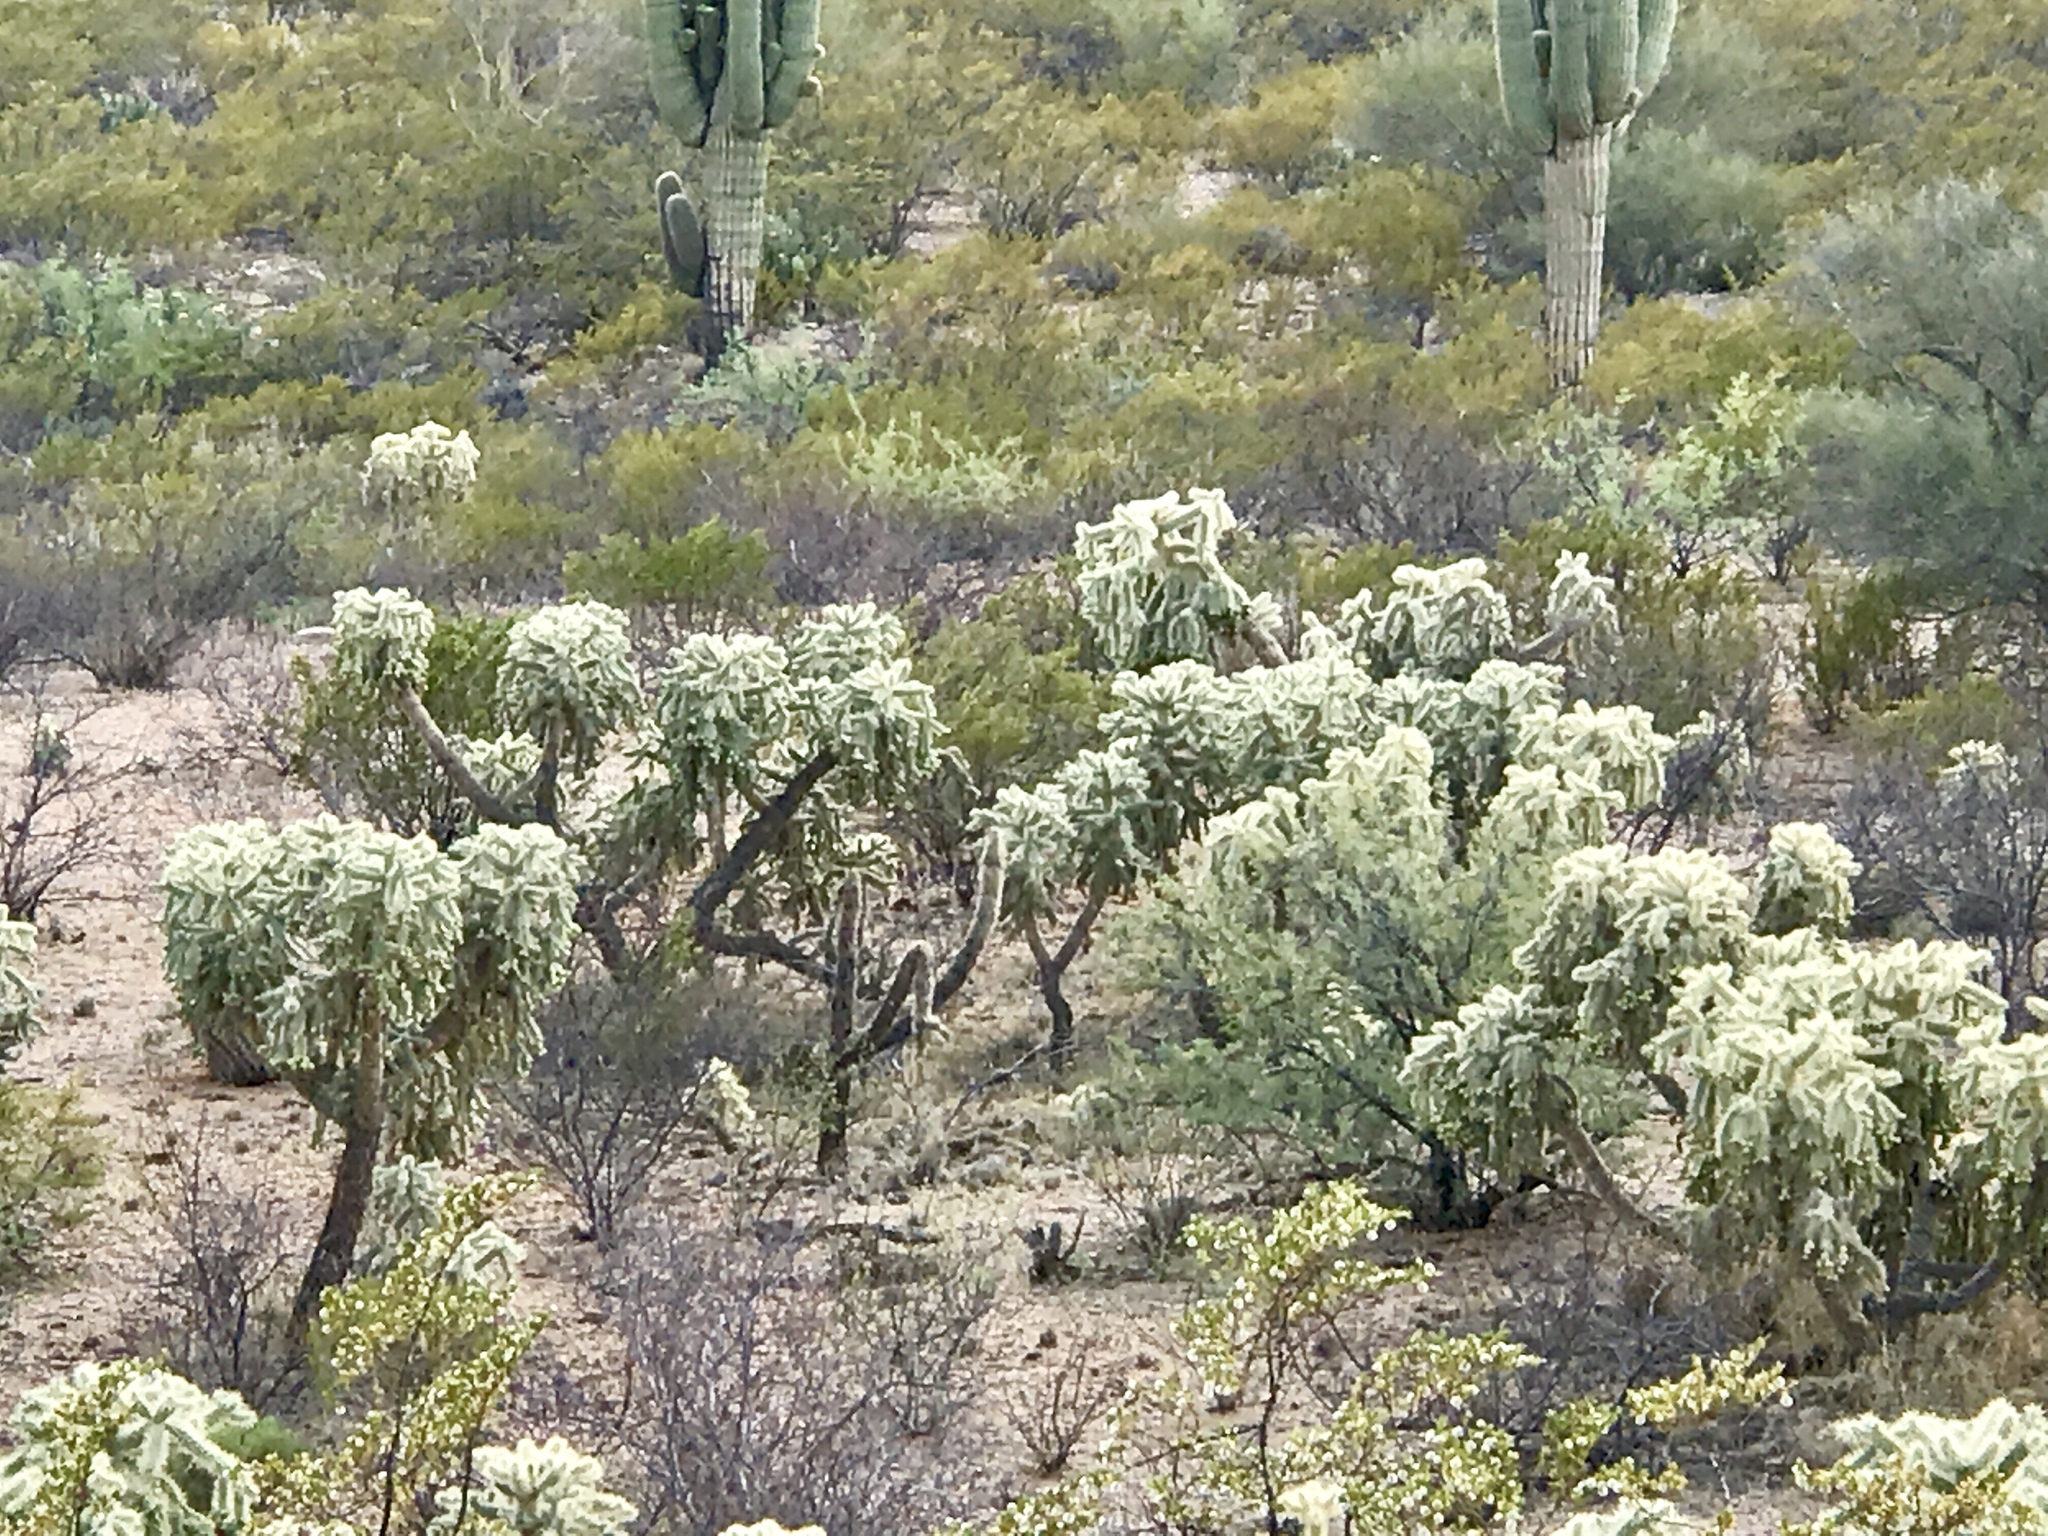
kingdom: Plantae
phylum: Tracheophyta
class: Magnoliopsida
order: Caryophyllales
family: Cactaceae
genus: Cylindropuntia
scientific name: Cylindropuntia fulgida
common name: Jumping cholla
